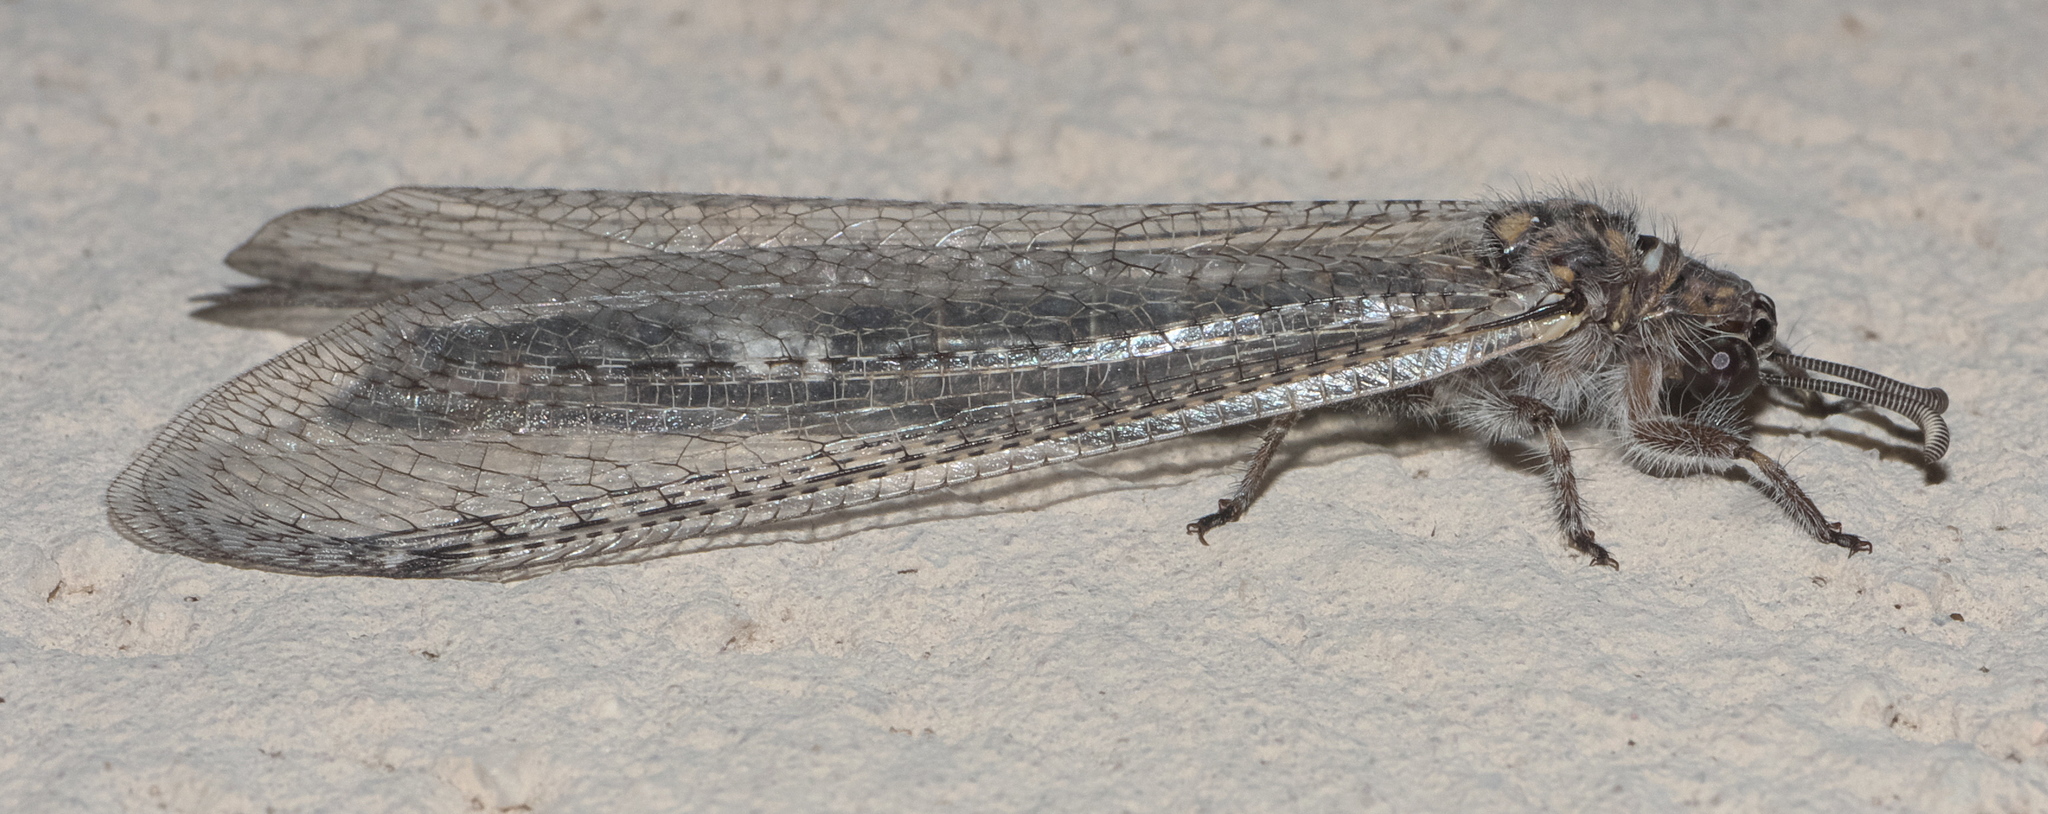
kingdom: Animalia
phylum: Arthropoda
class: Insecta
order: Neuroptera
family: Myrmeleontidae
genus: Paranthaclisis
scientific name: Paranthaclisis hageni
